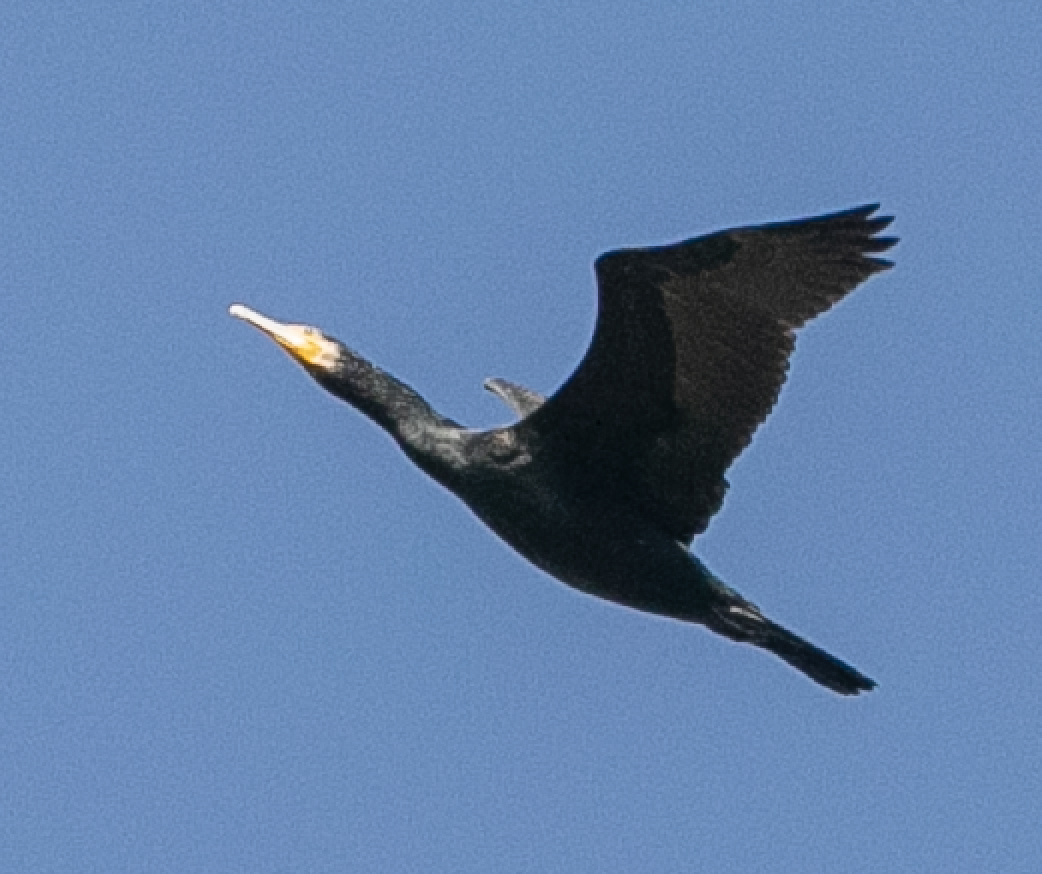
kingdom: Animalia
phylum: Chordata
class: Aves
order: Suliformes
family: Phalacrocoracidae
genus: Phalacrocorax
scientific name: Phalacrocorax carbo
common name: Great cormorant
